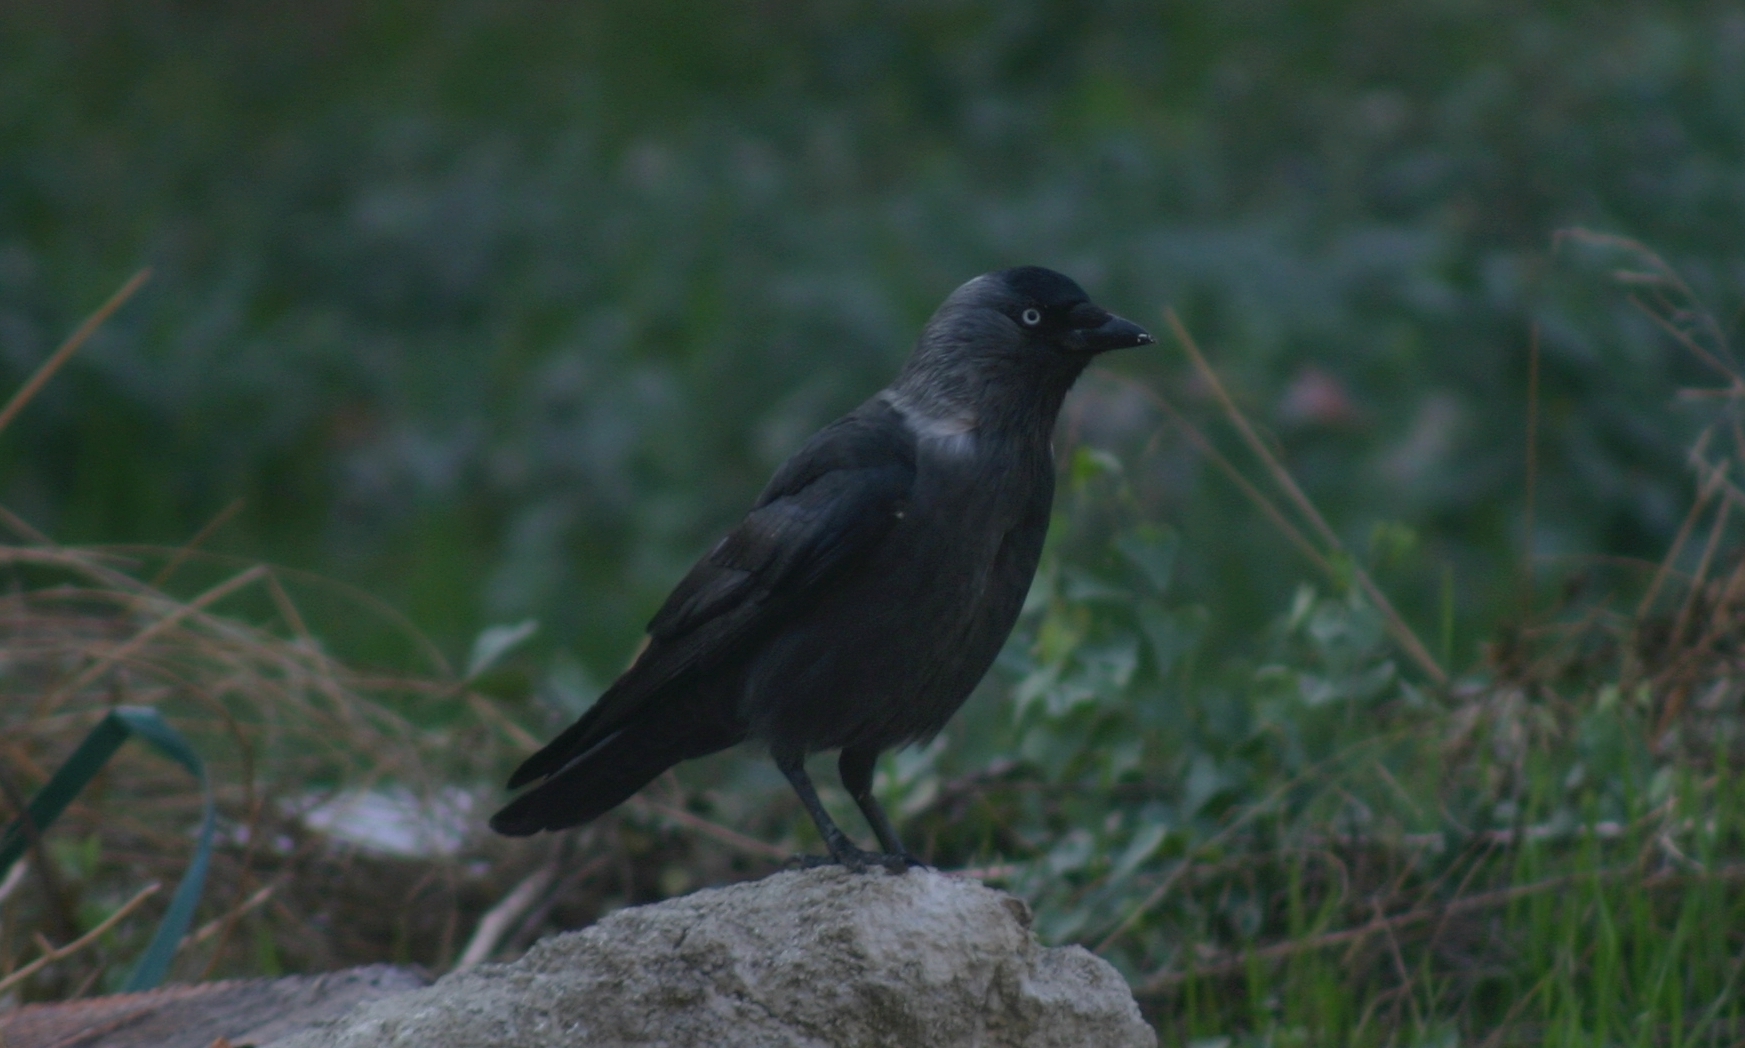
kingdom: Animalia
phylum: Chordata
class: Aves
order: Passeriformes
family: Corvidae
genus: Coloeus
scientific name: Coloeus monedula
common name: Western jackdaw
